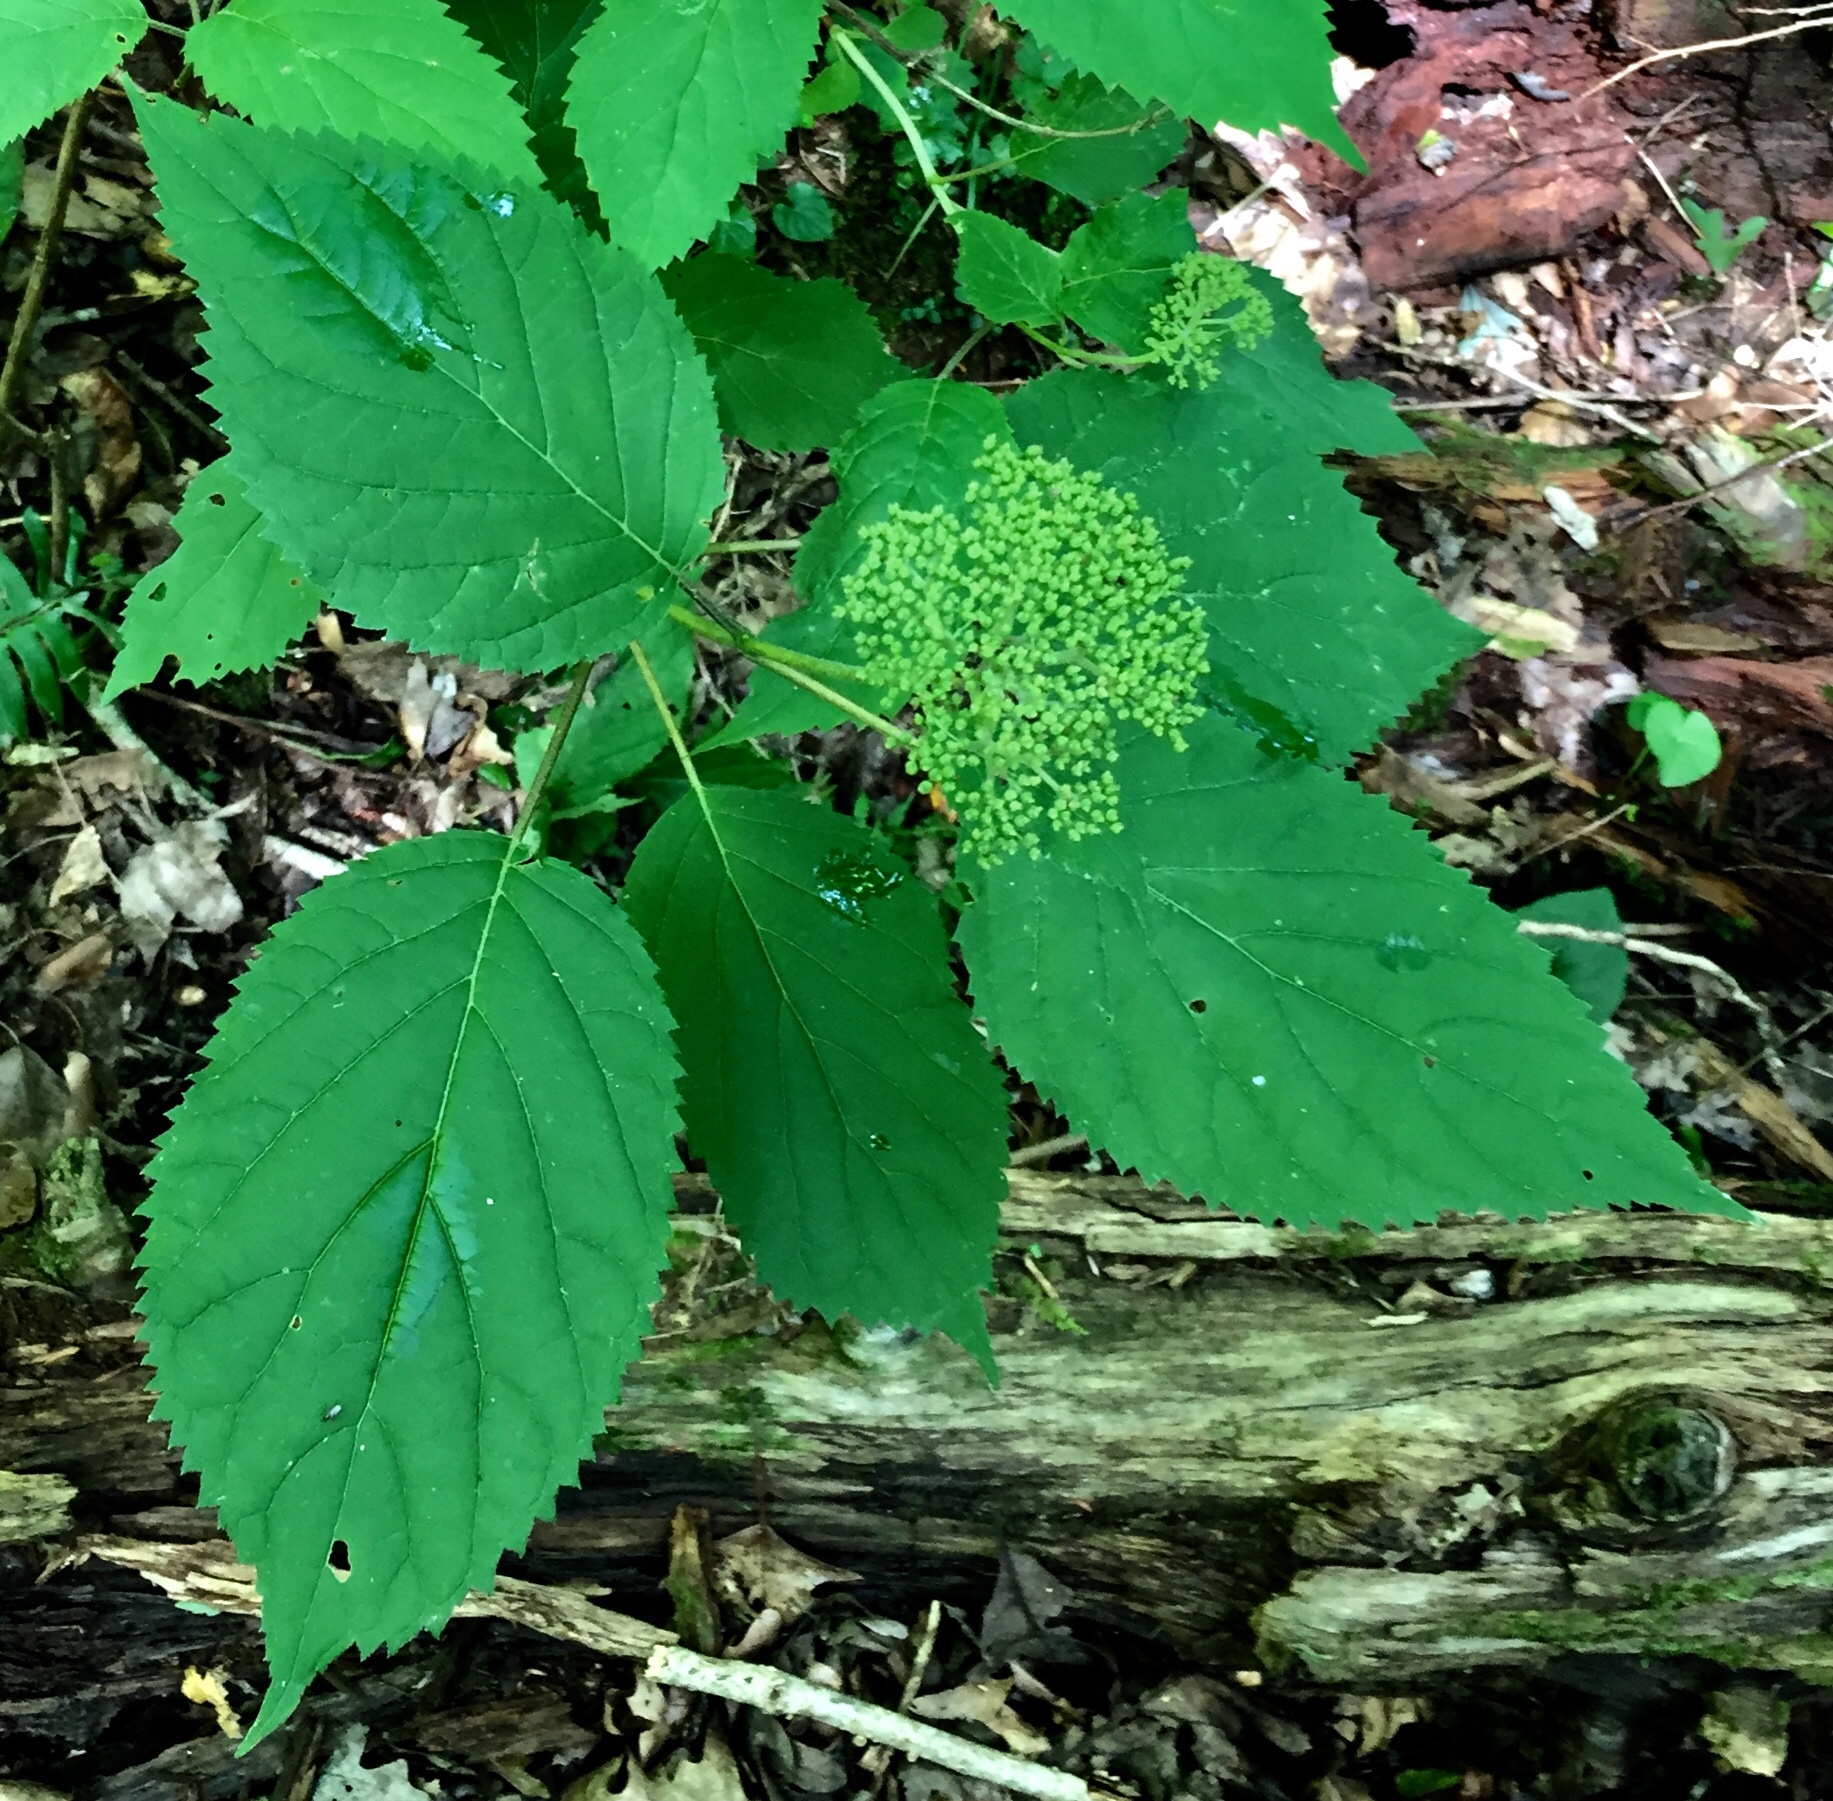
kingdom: Plantae
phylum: Tracheophyta
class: Magnoliopsida
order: Cornales
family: Hydrangeaceae
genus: Hydrangea
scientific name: Hydrangea arborescens
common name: Sevenbark
